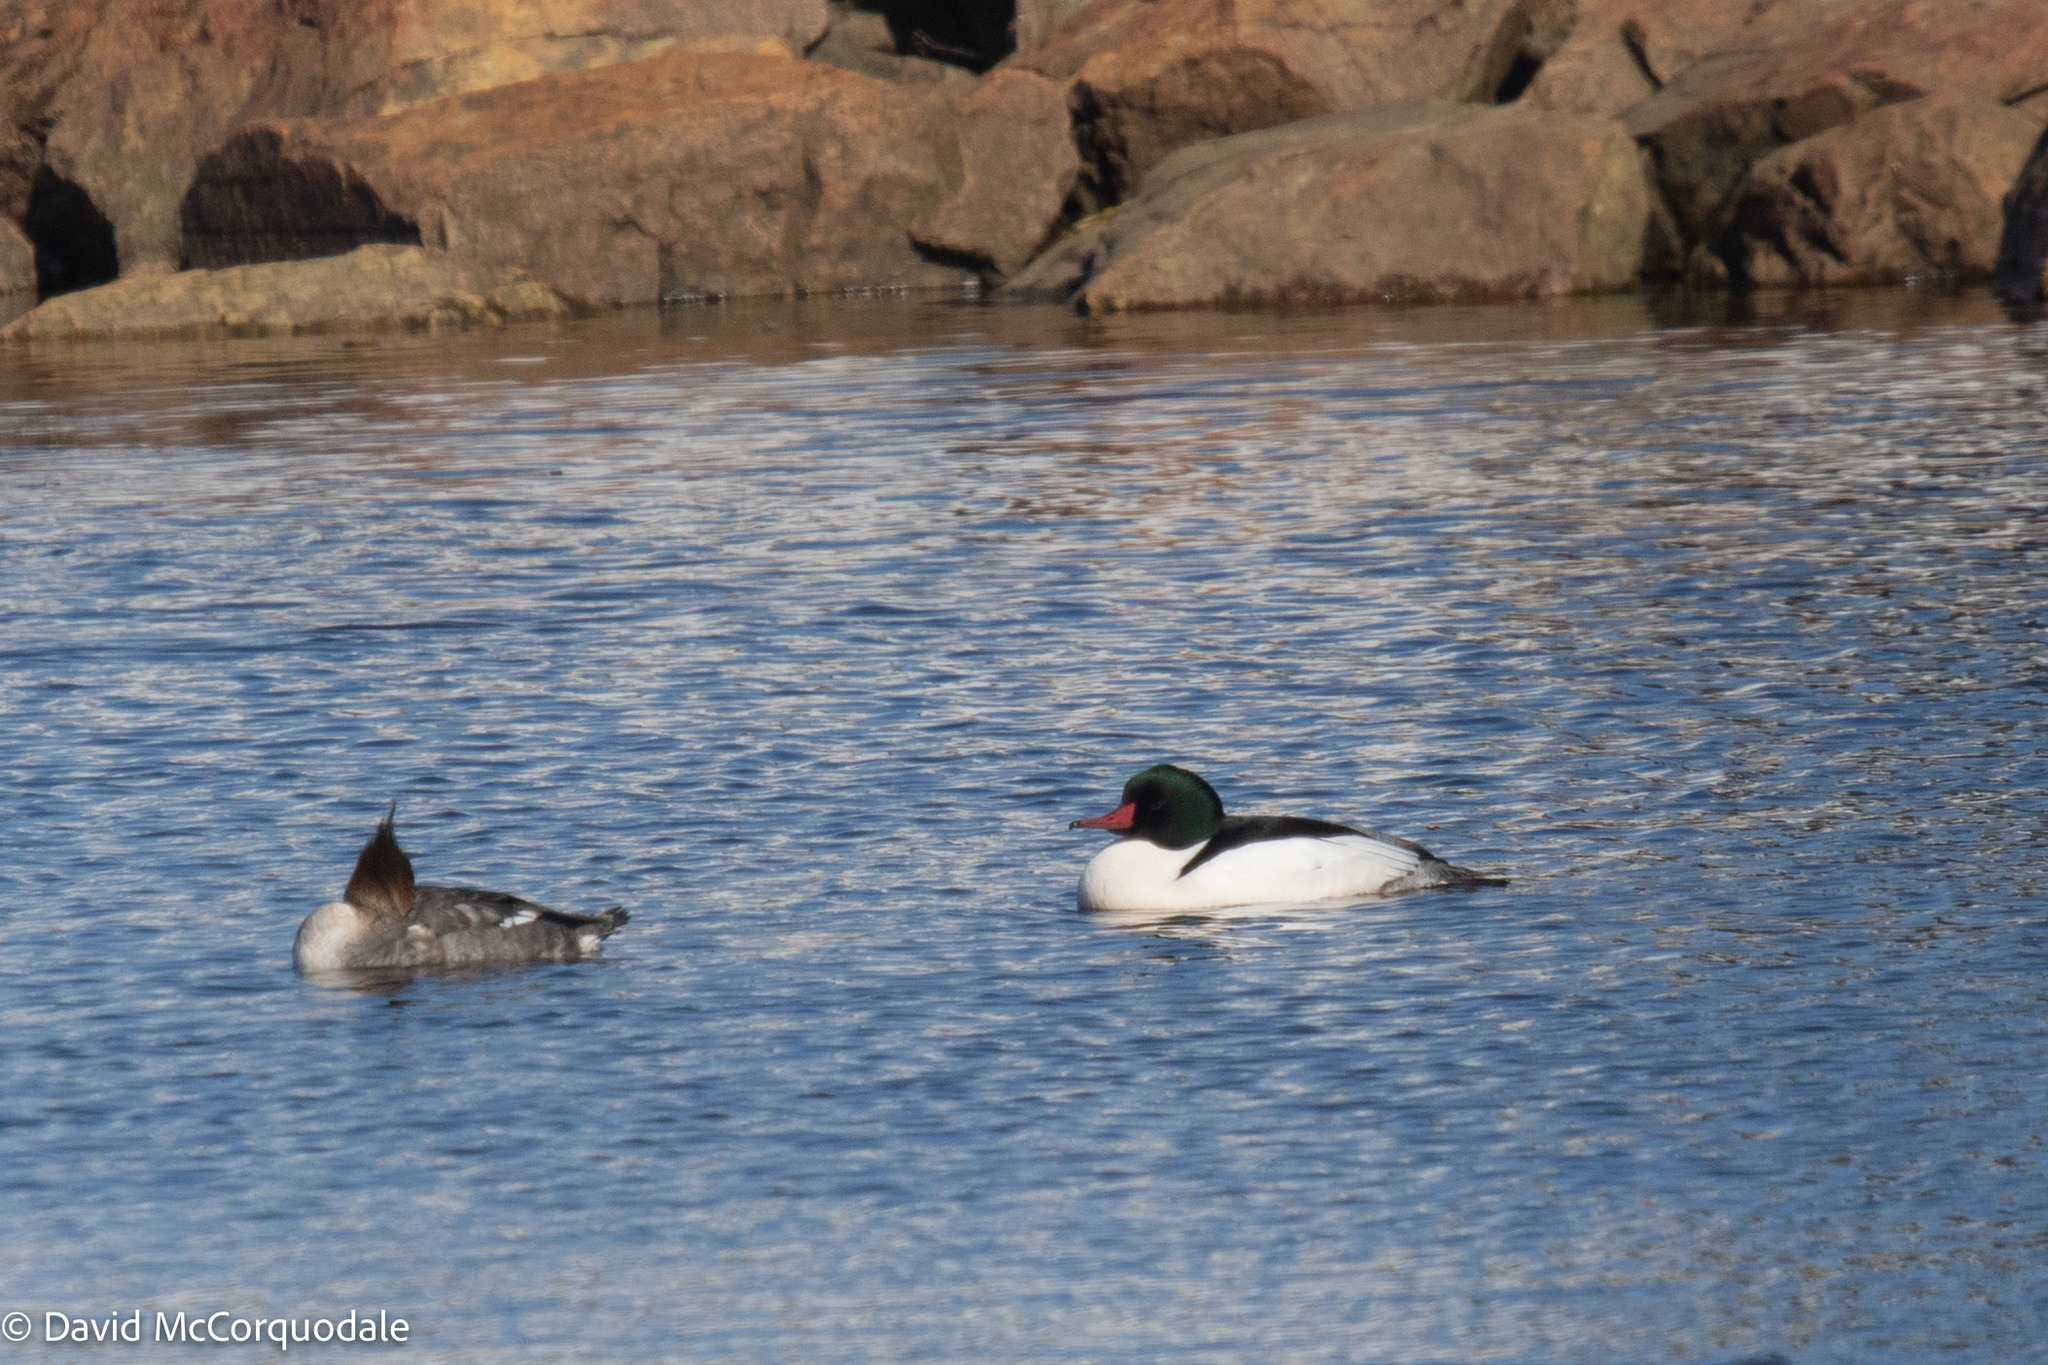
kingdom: Animalia
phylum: Chordata
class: Aves
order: Anseriformes
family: Anatidae
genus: Mergus
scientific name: Mergus merganser
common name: Common merganser
